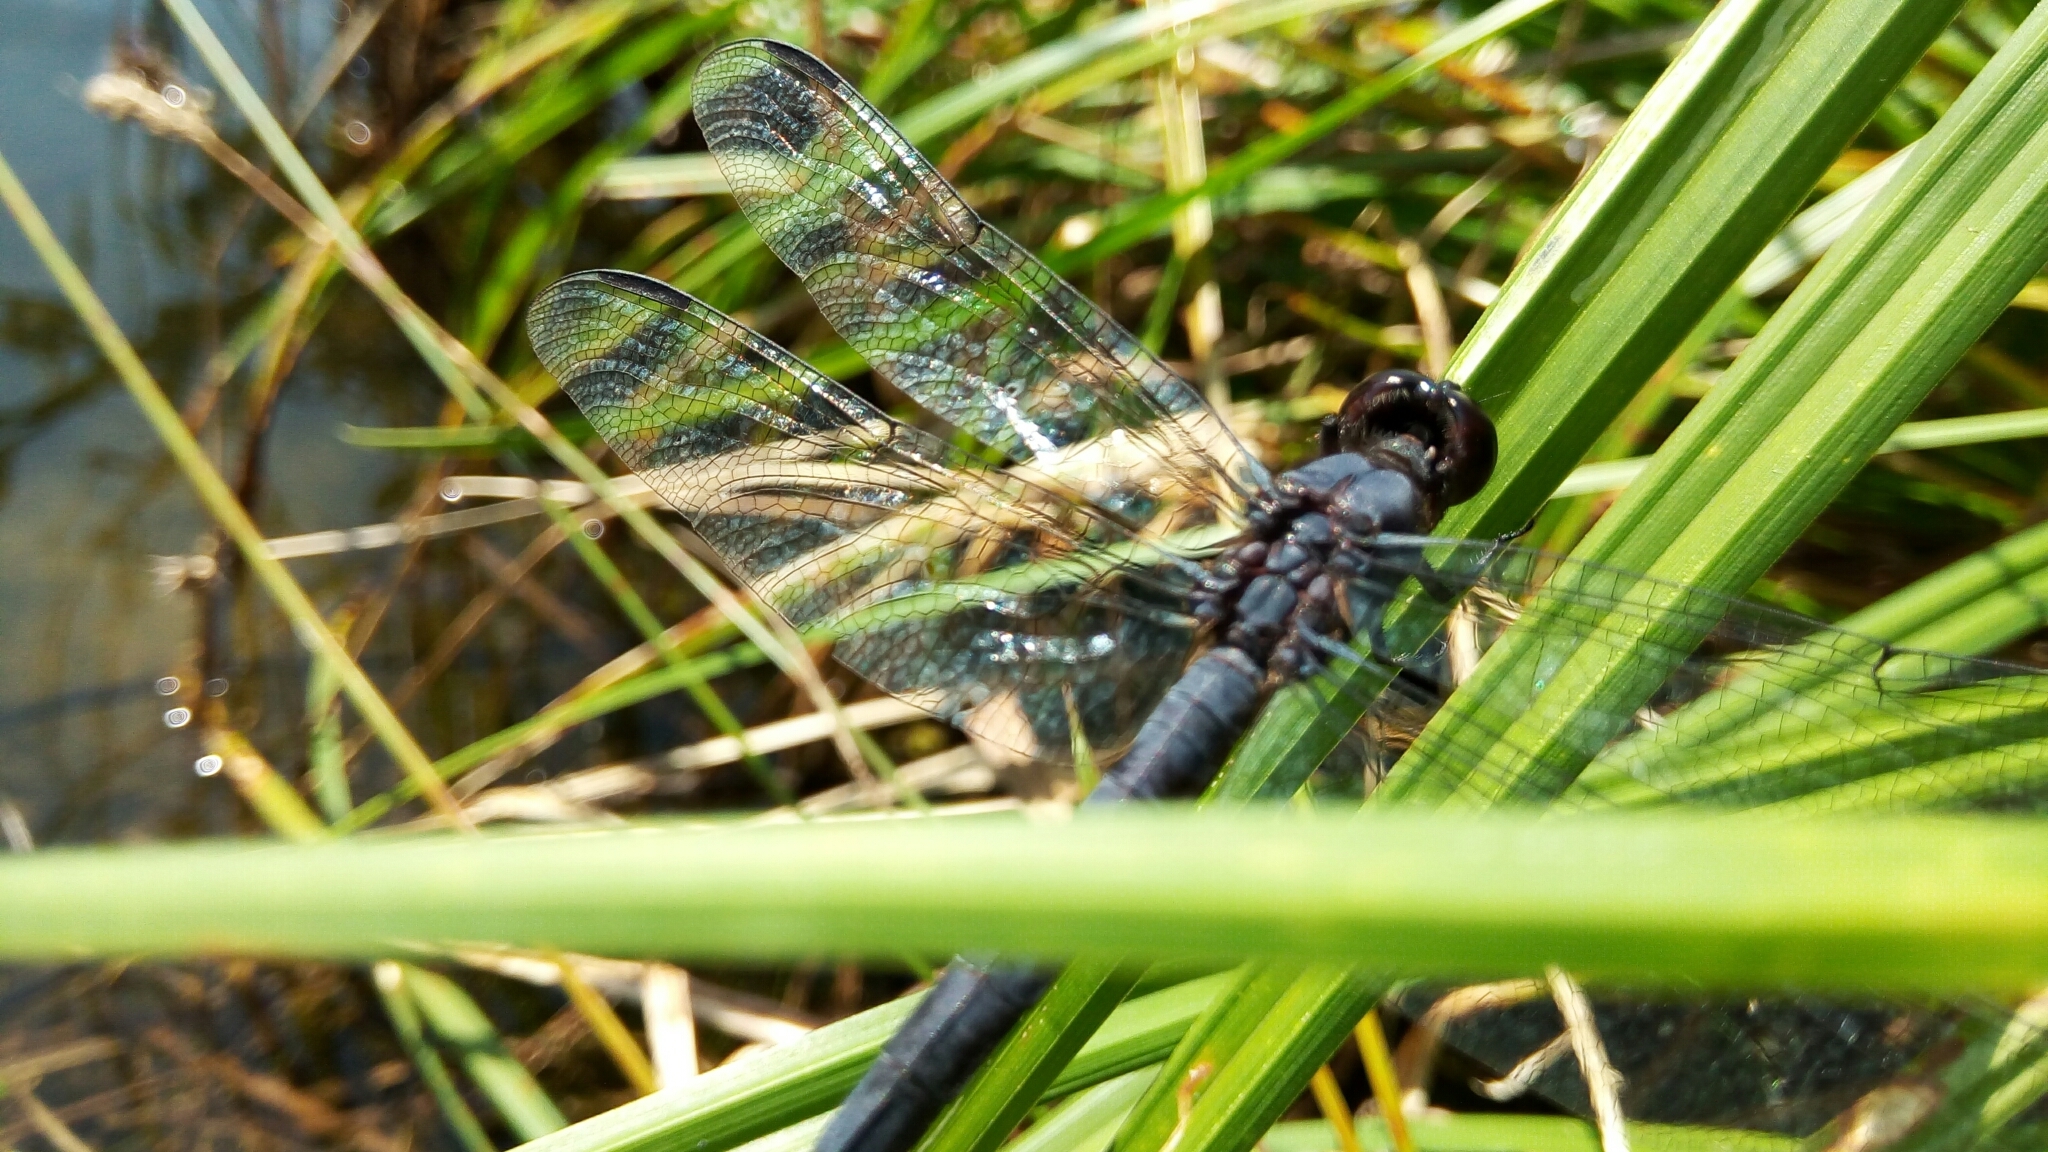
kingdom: Animalia
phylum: Arthropoda
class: Insecta
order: Odonata
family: Libellulidae
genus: Libellula
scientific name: Libellula incesta
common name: Slaty skimmer
